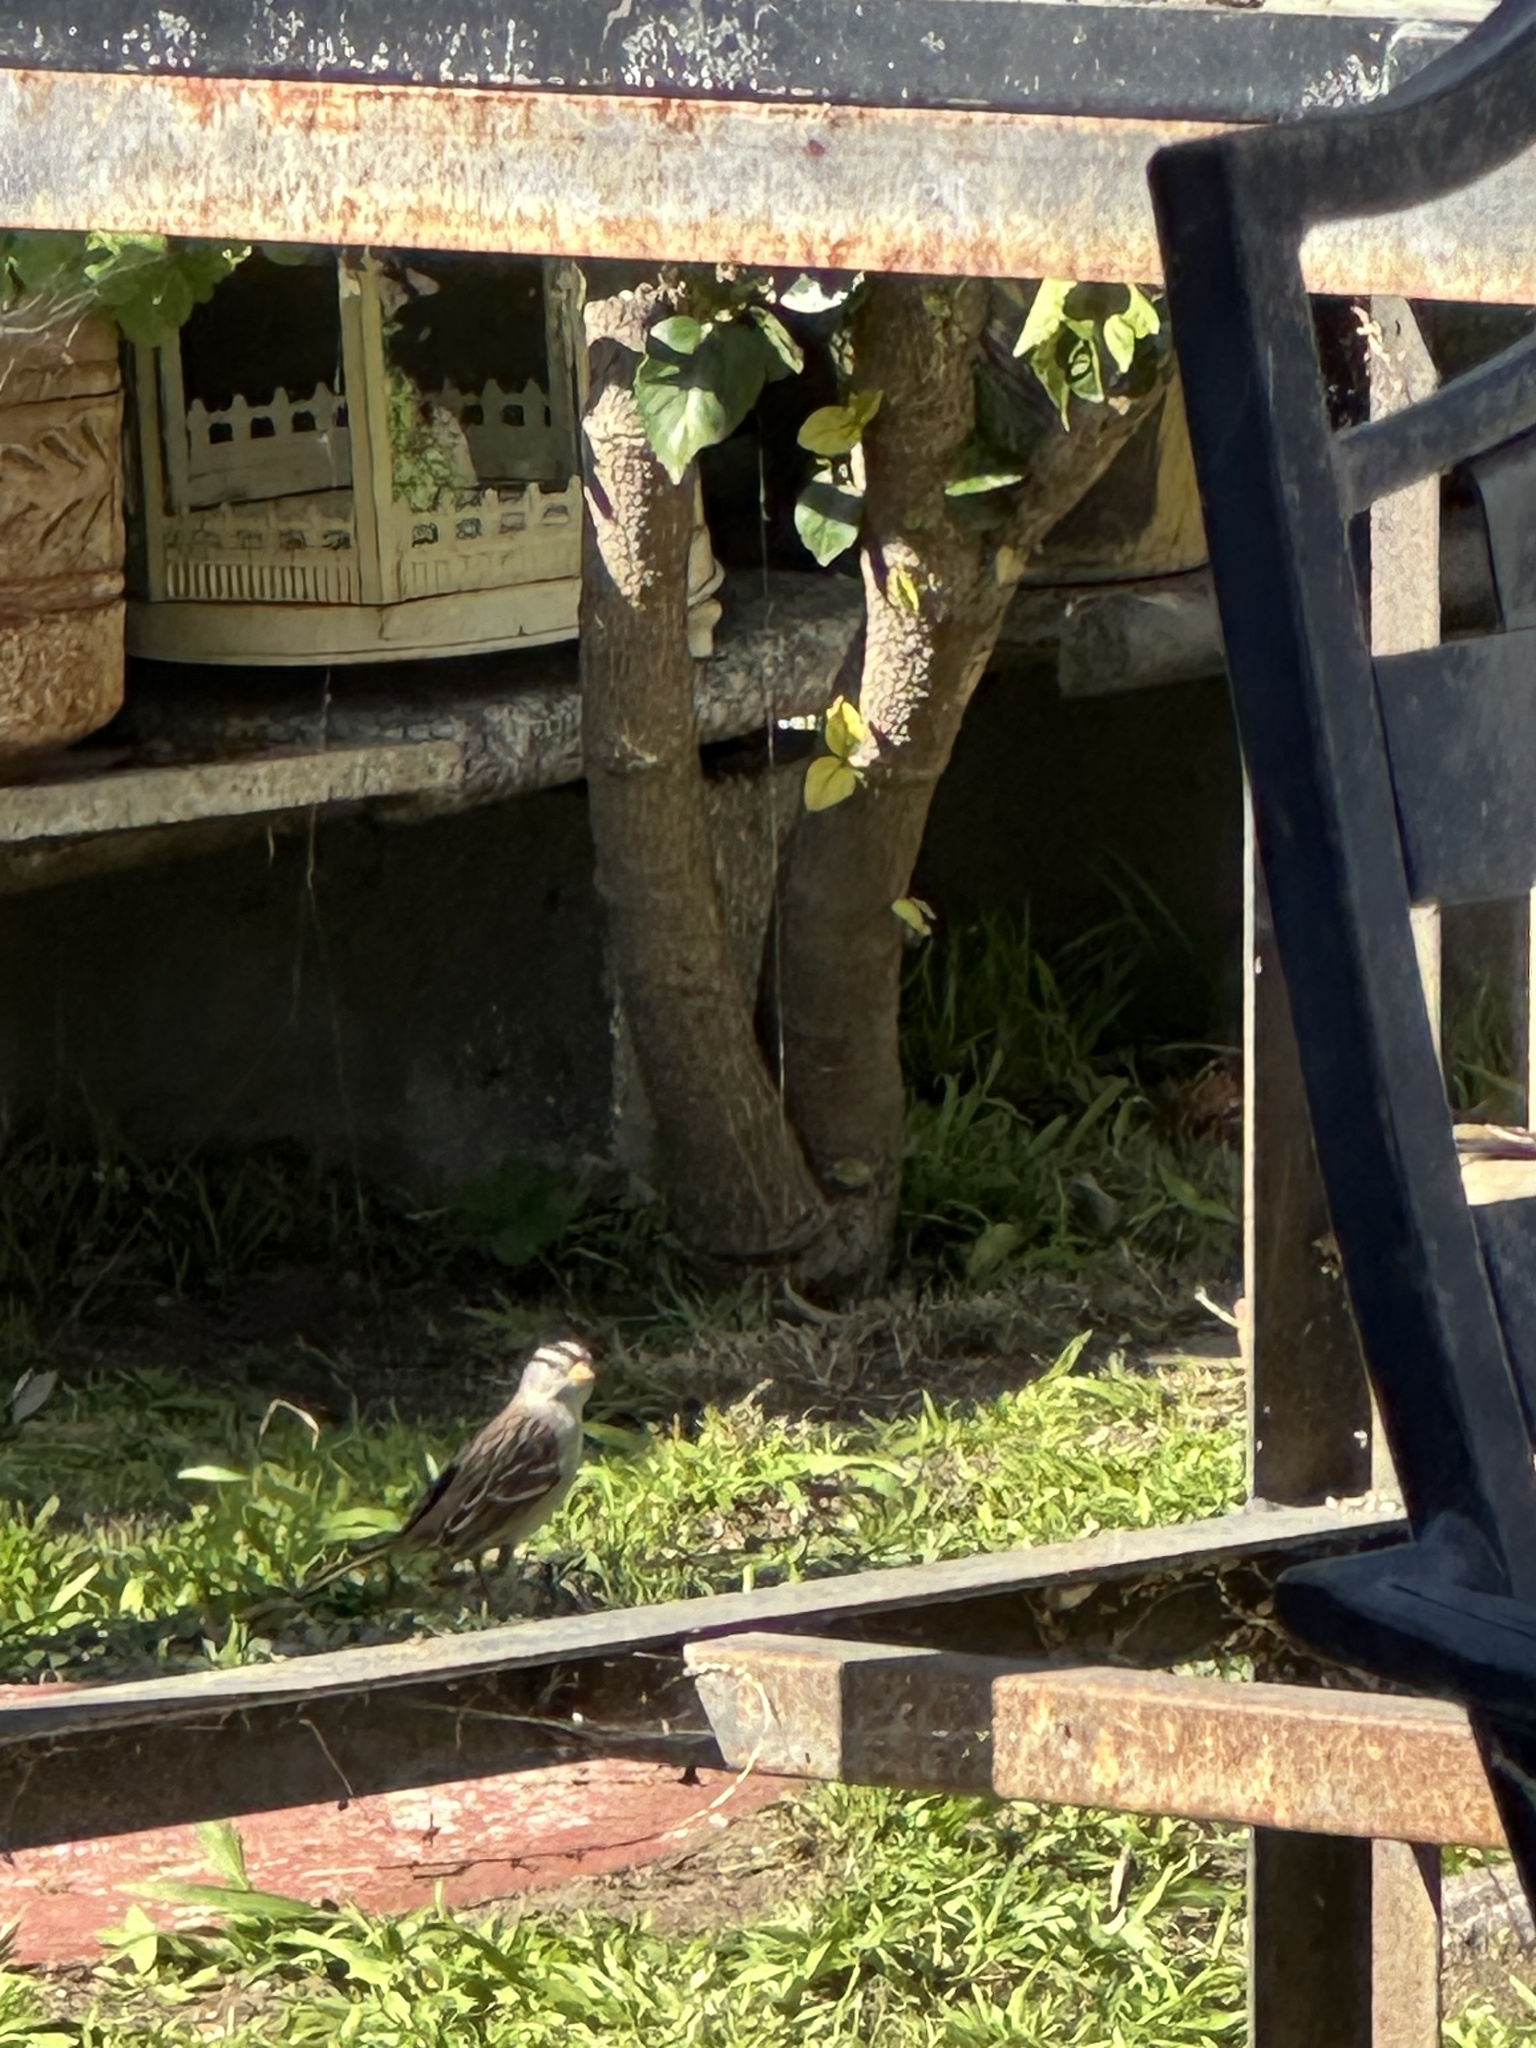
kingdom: Animalia
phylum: Chordata
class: Aves
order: Passeriformes
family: Passerellidae
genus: Zonotrichia
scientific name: Zonotrichia leucophrys
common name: White-crowned sparrow
